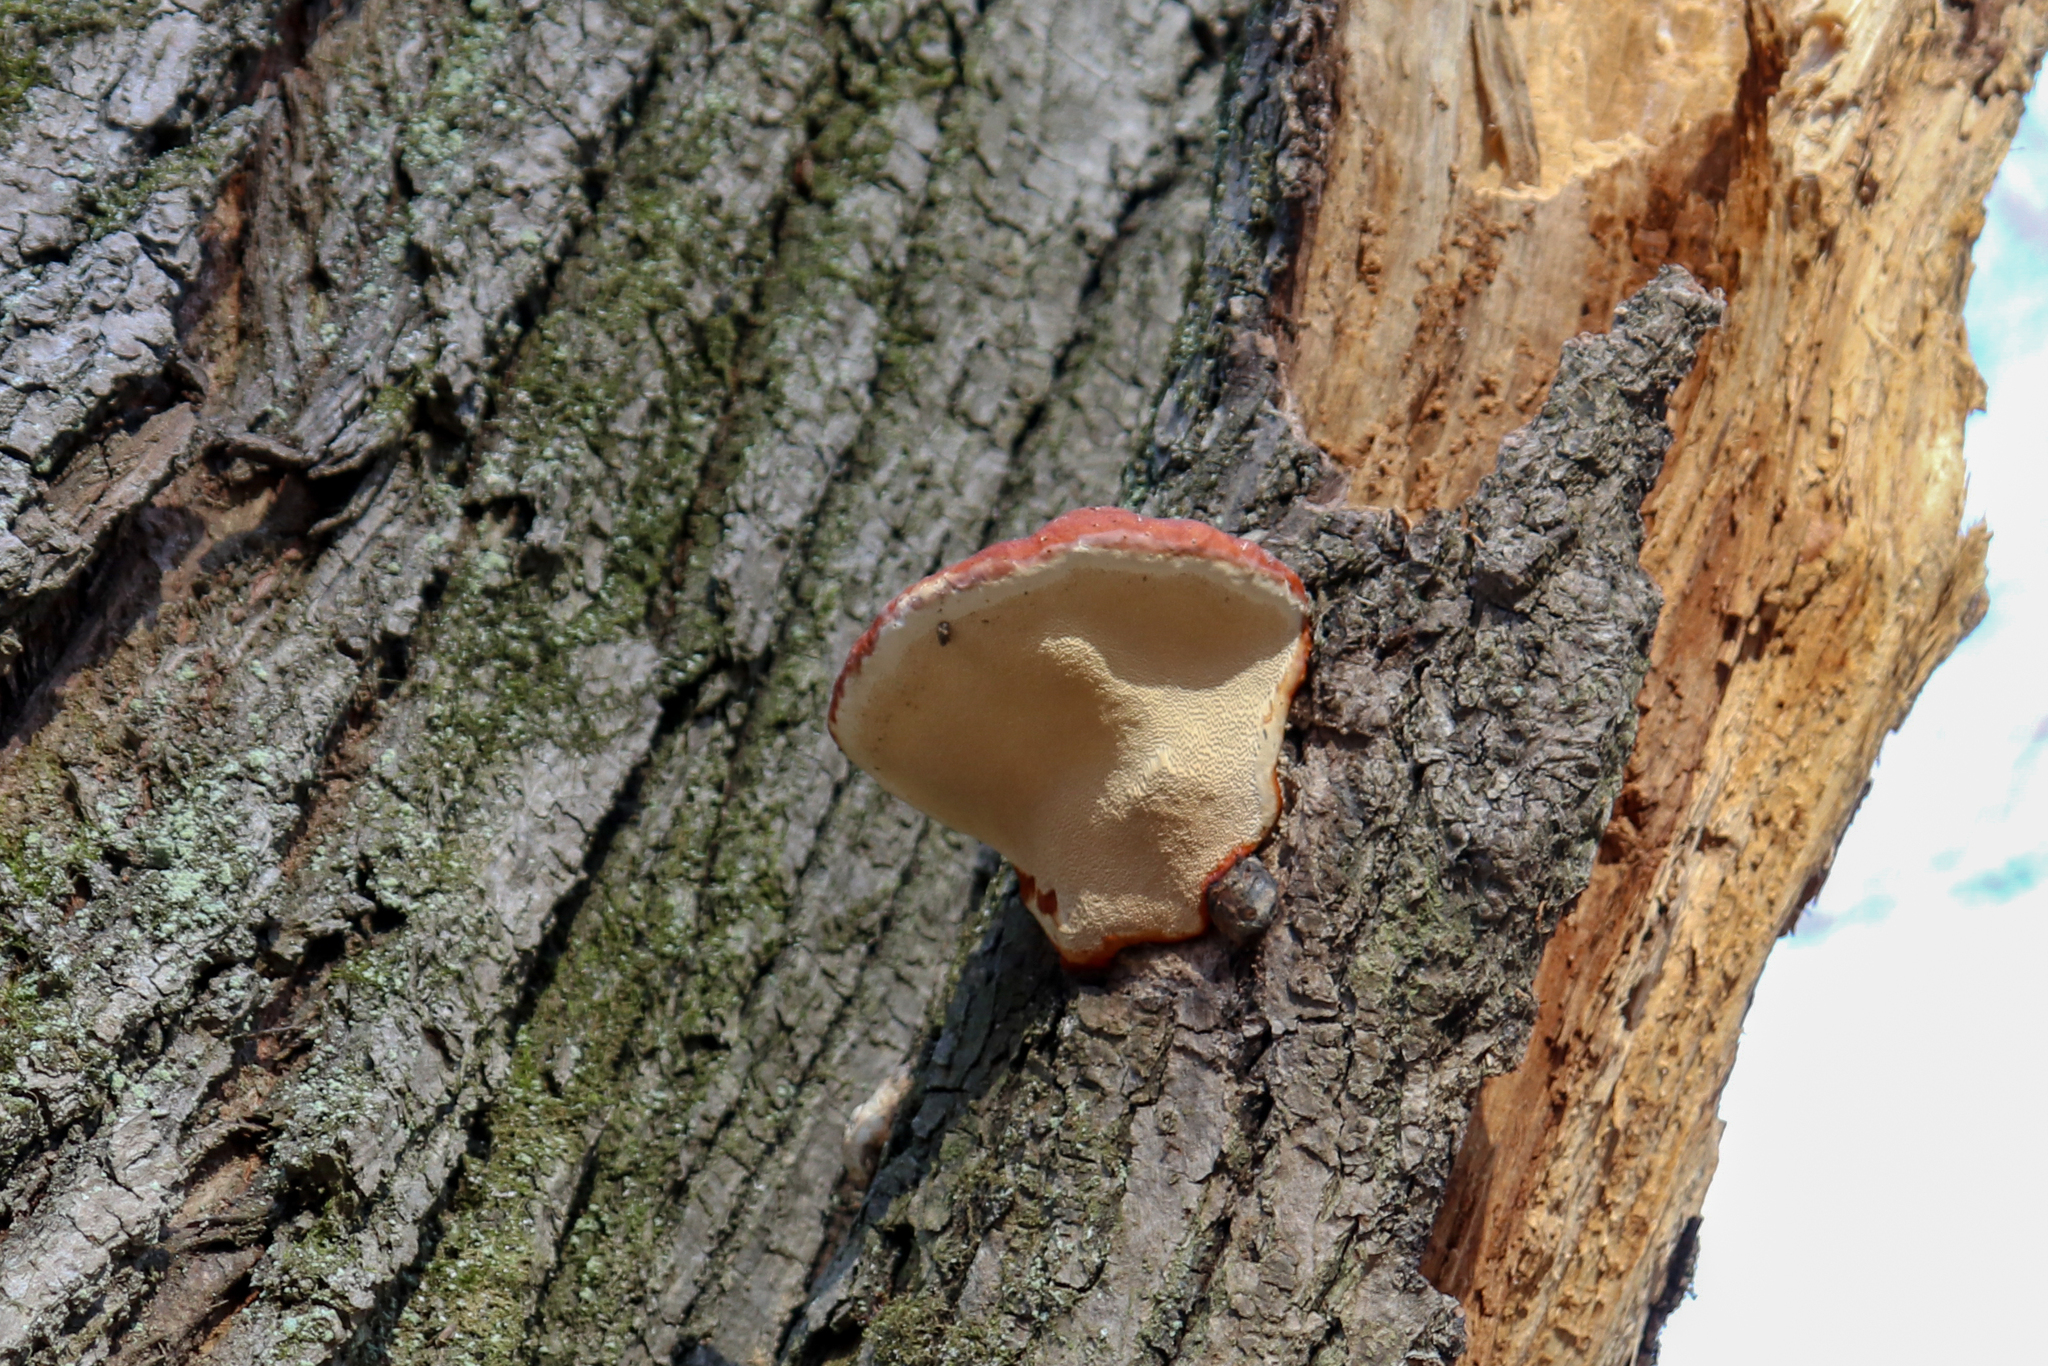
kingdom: Fungi
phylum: Basidiomycota
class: Agaricomycetes
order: Polyporales
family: Fomitopsidaceae
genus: Fomitopsis
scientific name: Fomitopsis pinicola
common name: Red-belted bracket
